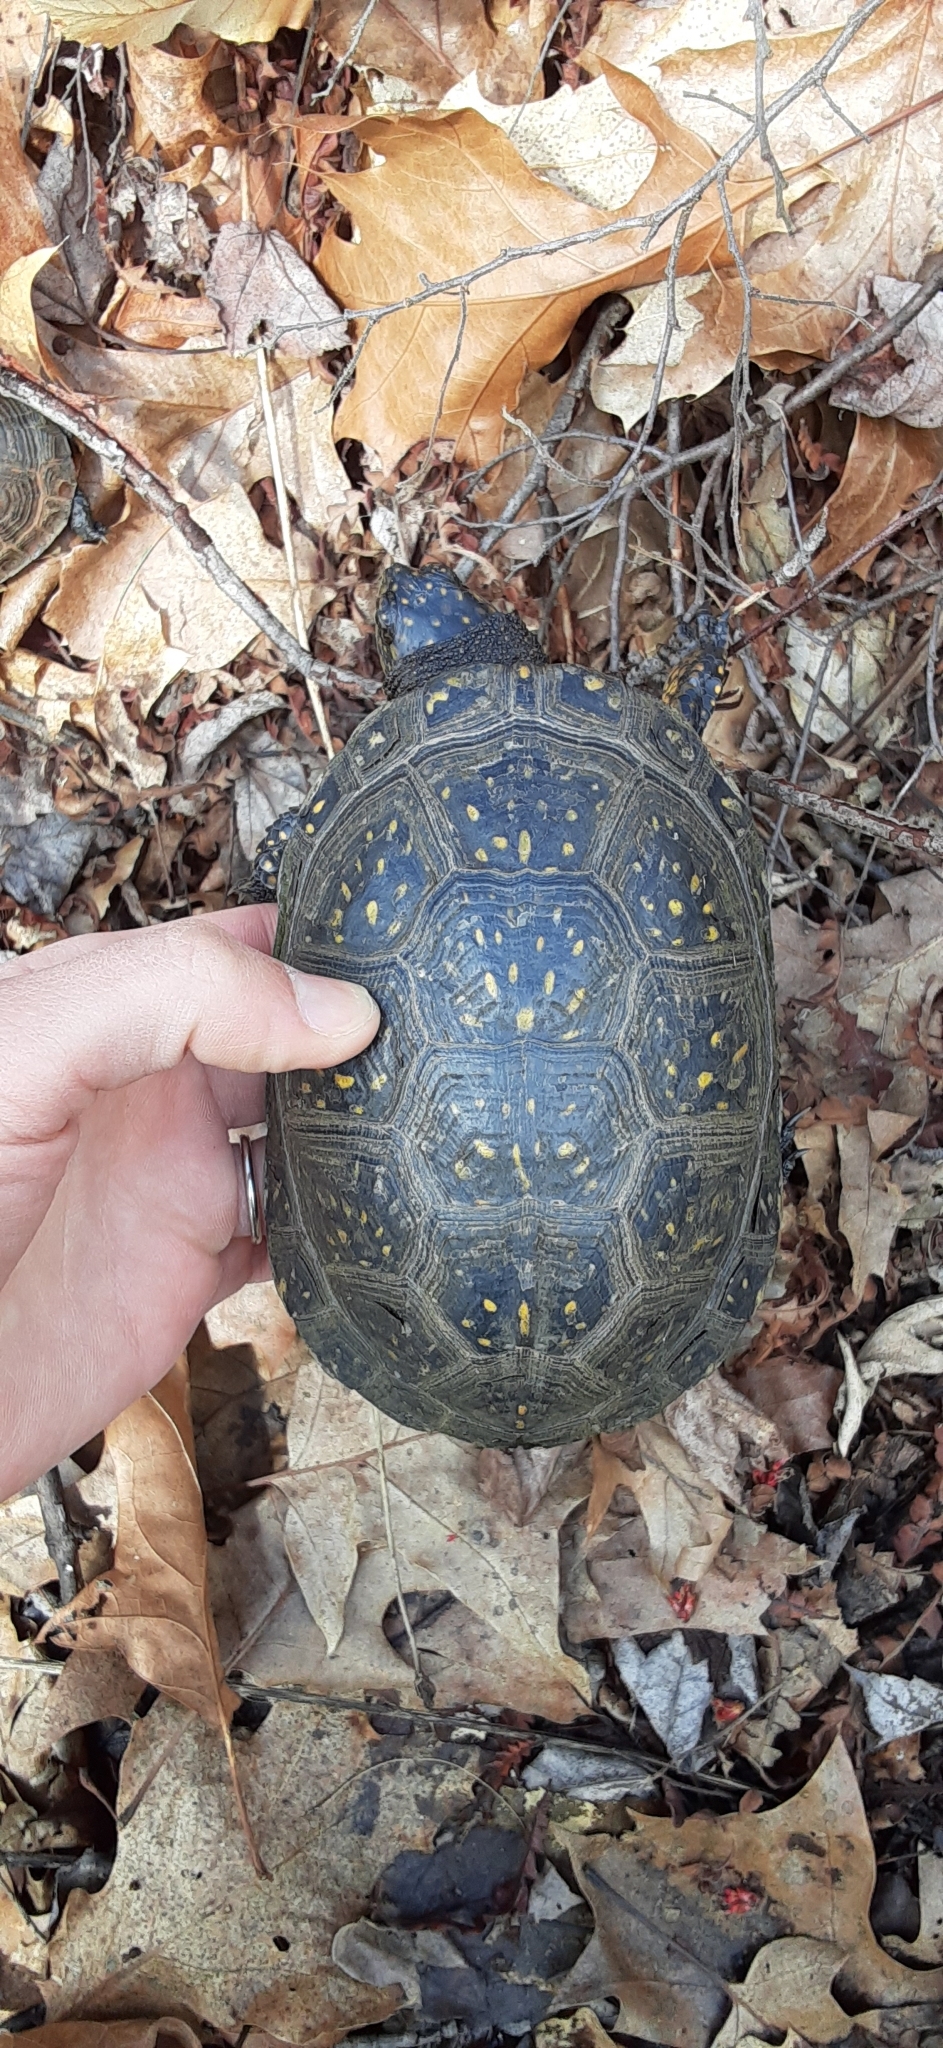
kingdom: Animalia
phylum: Chordata
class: Testudines
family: Emydidae
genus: Emys
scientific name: Emys blandingii
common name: Blanding's turtle
